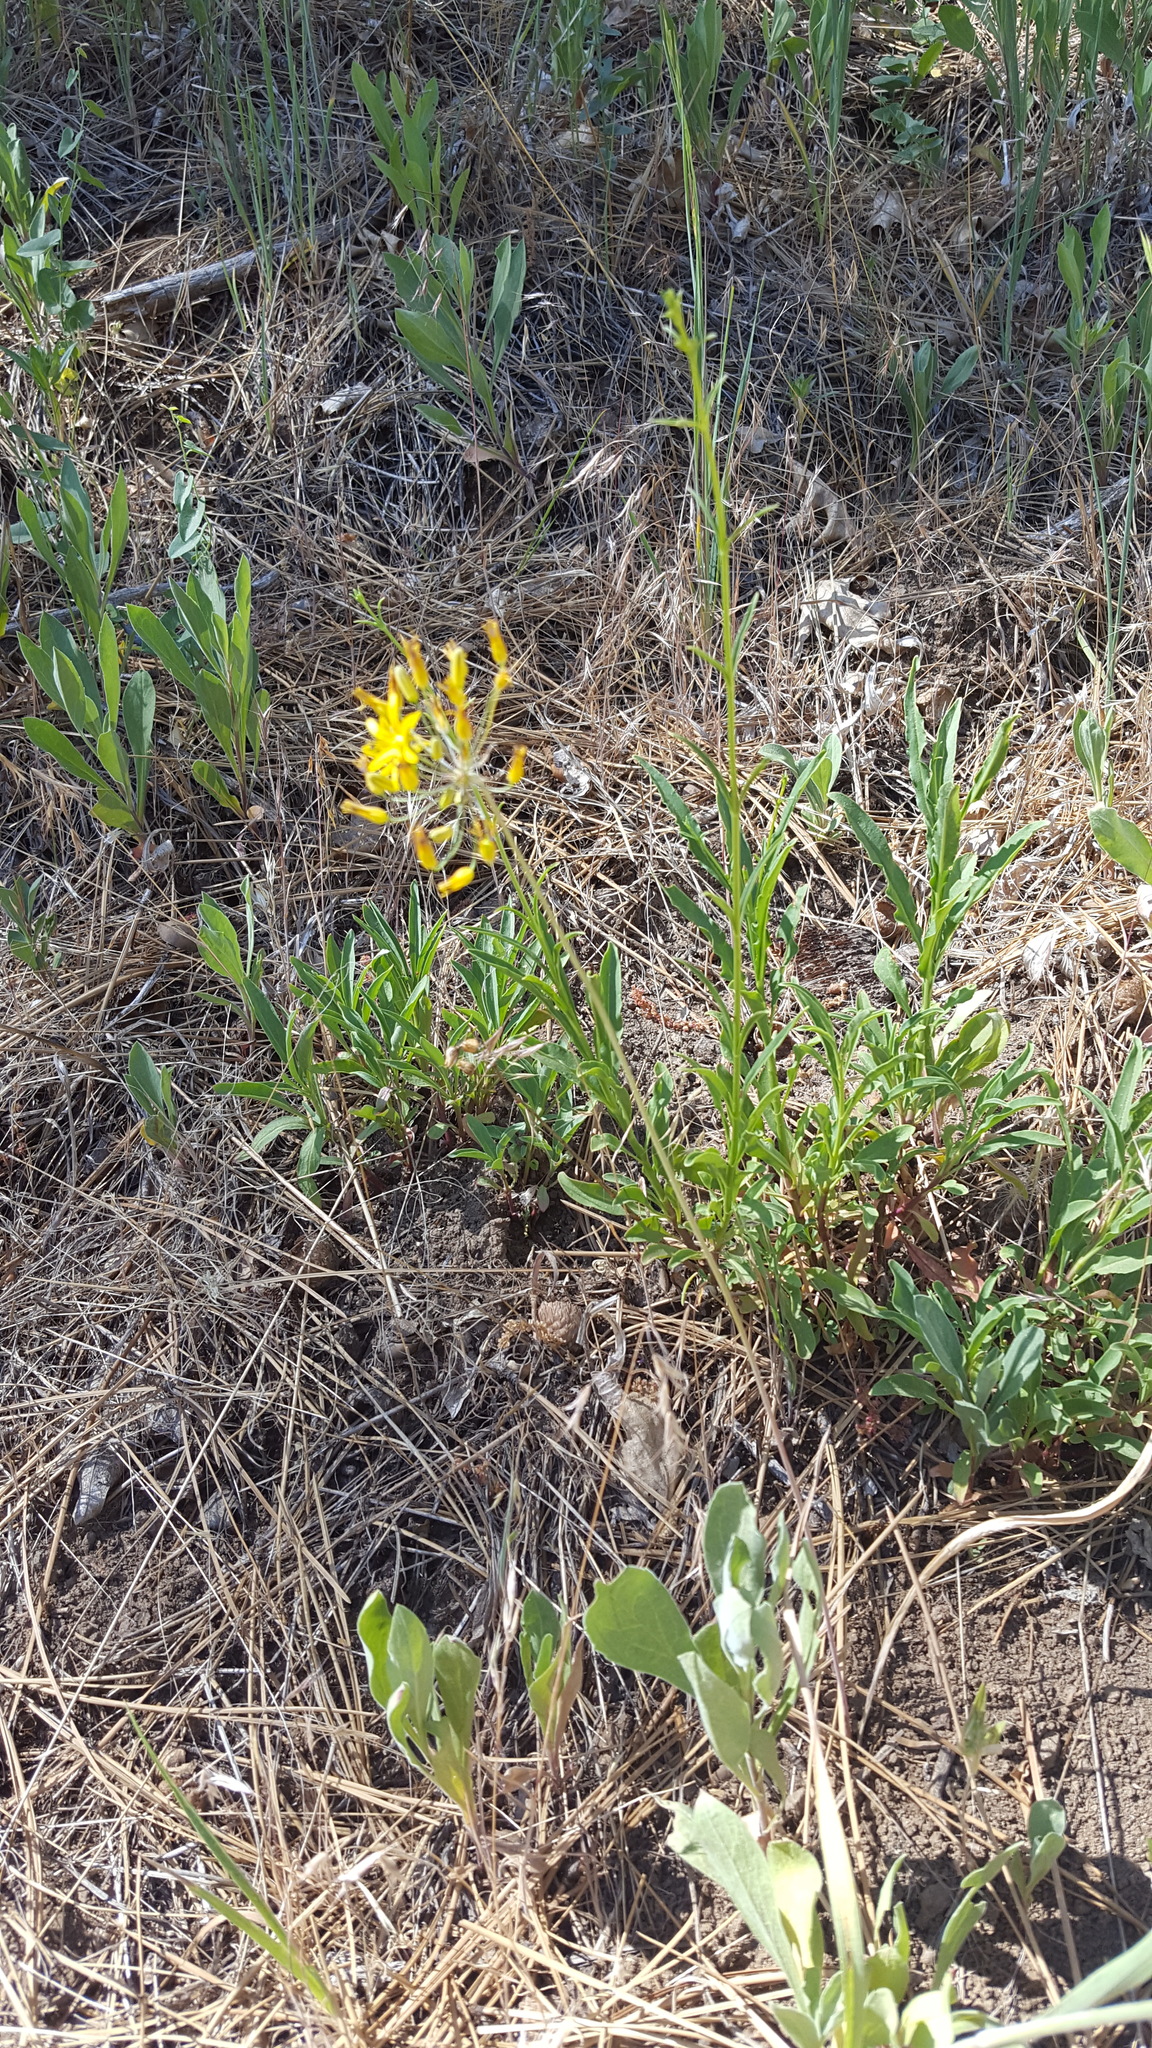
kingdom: Plantae
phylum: Tracheophyta
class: Liliopsida
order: Asparagales
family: Asparagaceae
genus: Bloomeria
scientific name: Bloomeria crocea
